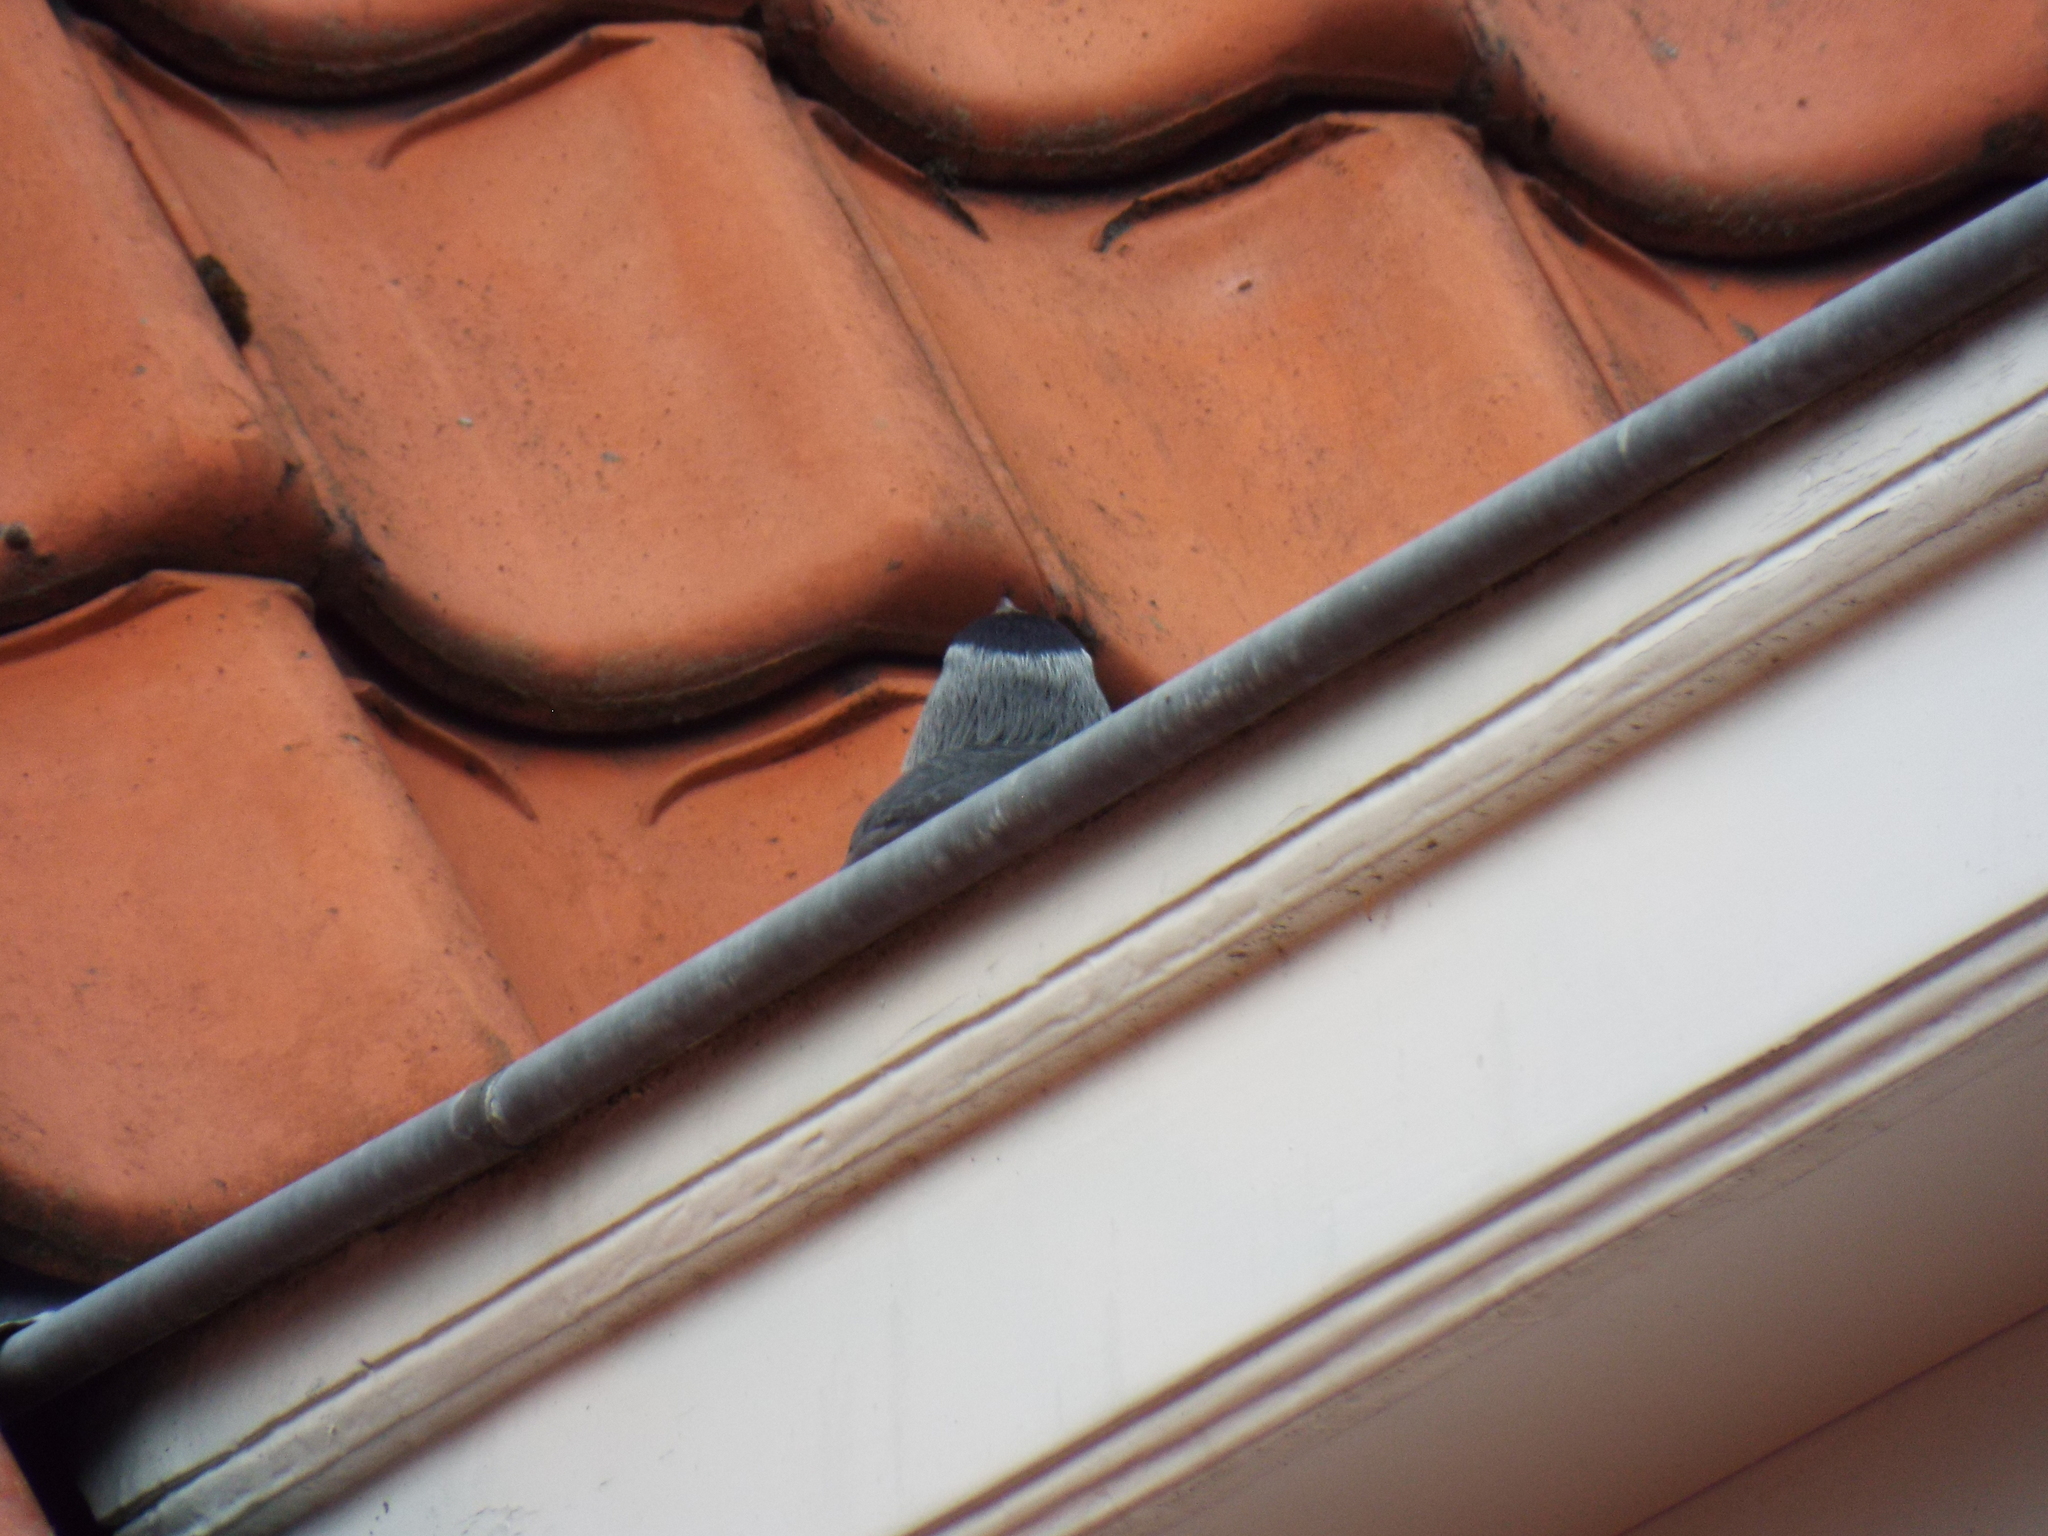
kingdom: Animalia
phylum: Chordata
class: Aves
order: Passeriformes
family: Corvidae
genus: Coloeus
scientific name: Coloeus monedula
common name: Western jackdaw
